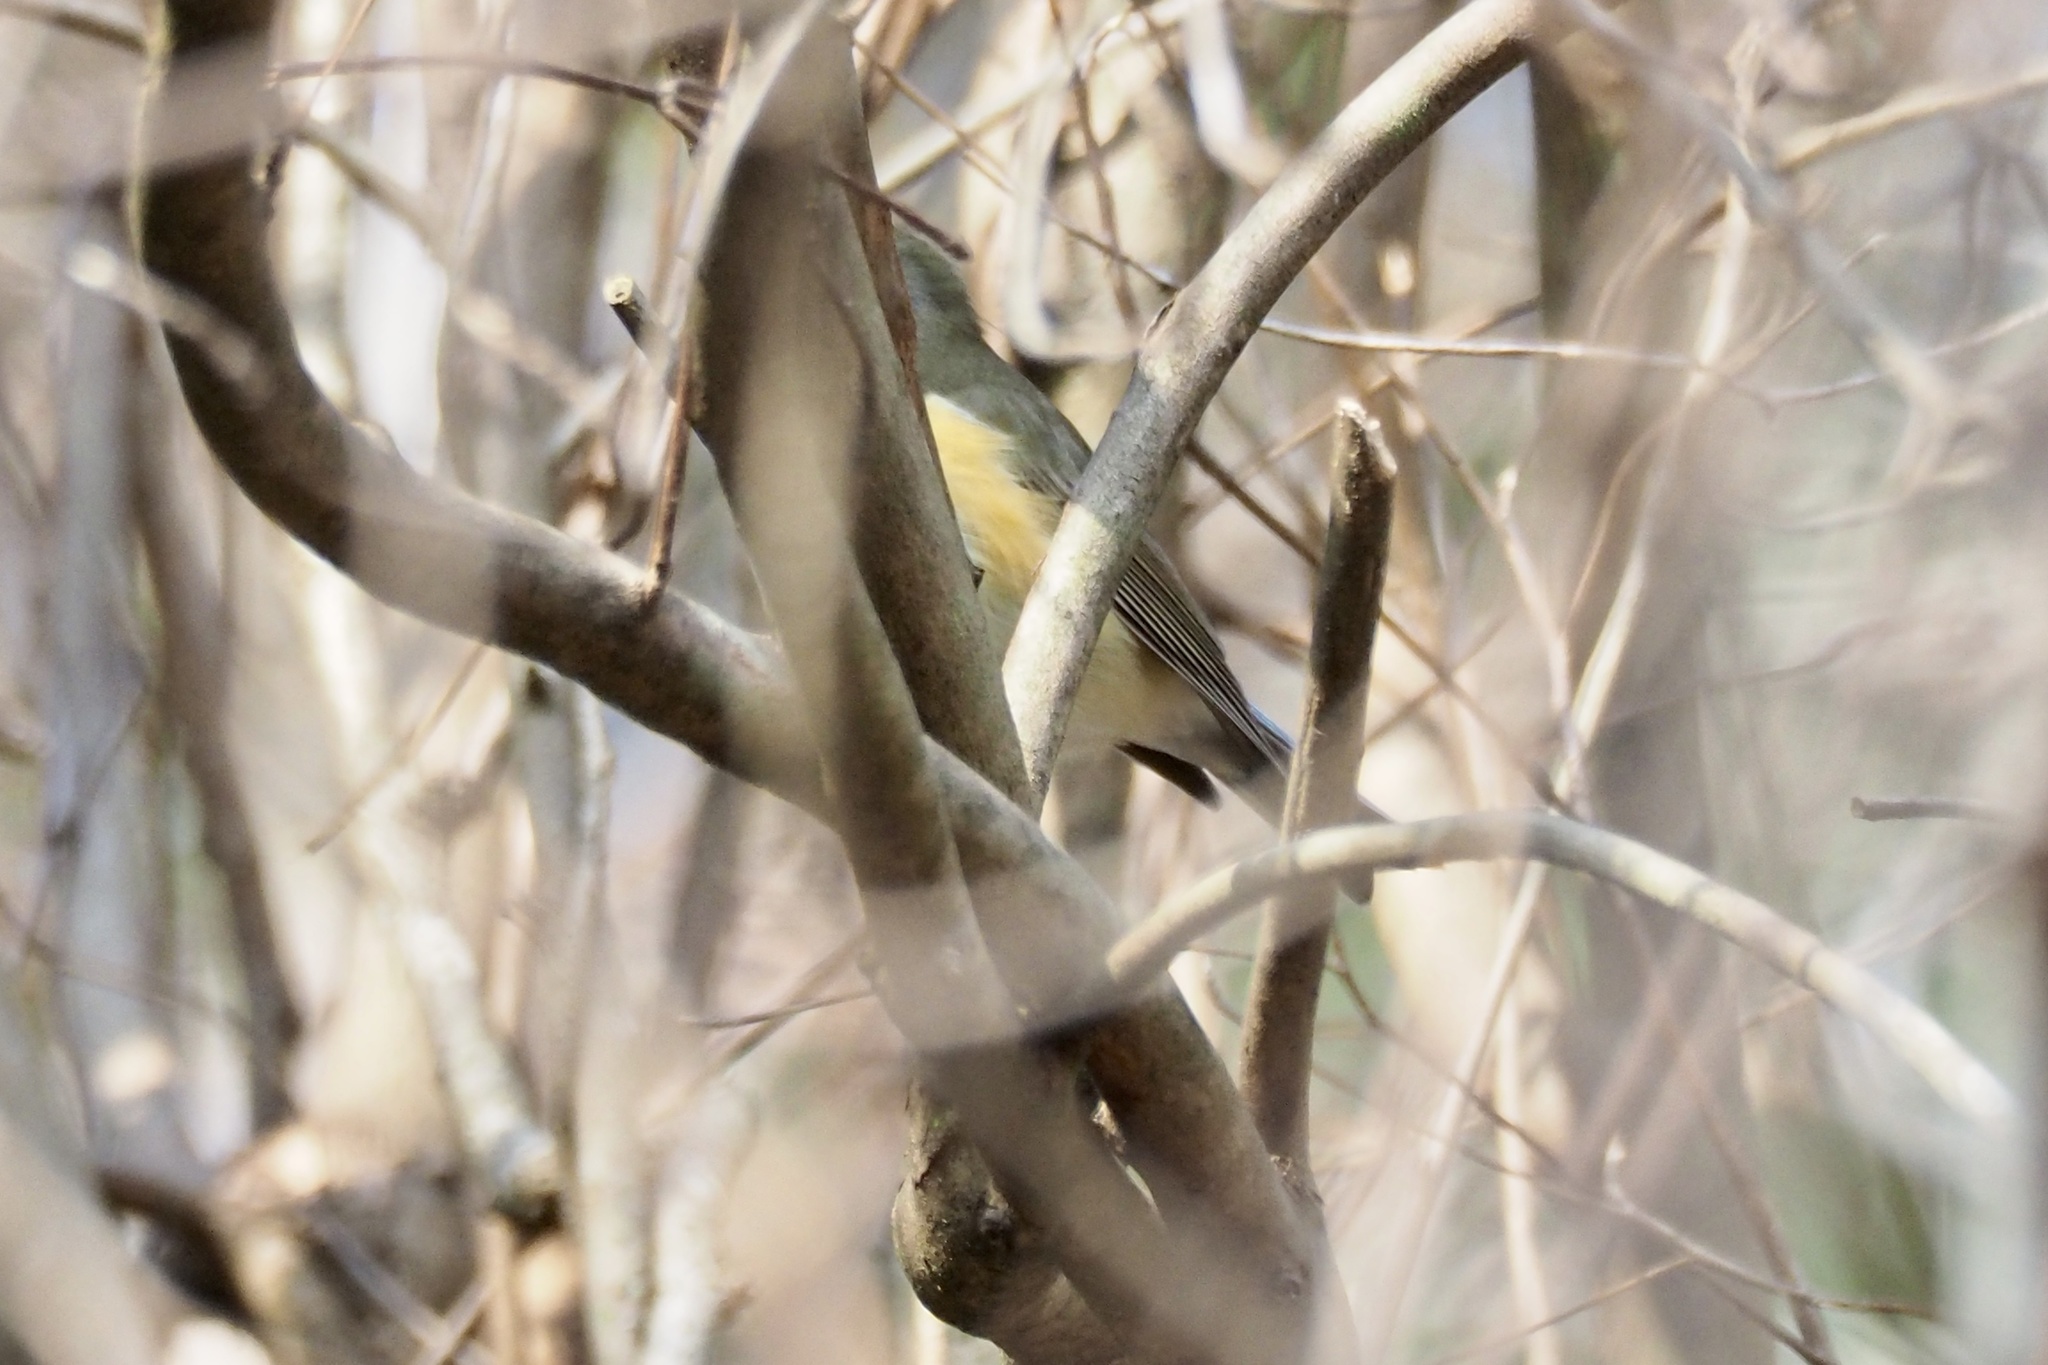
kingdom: Animalia
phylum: Chordata
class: Aves
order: Passeriformes
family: Muscicapidae
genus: Tarsiger
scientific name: Tarsiger cyanurus
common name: Red-flanked bluetail
